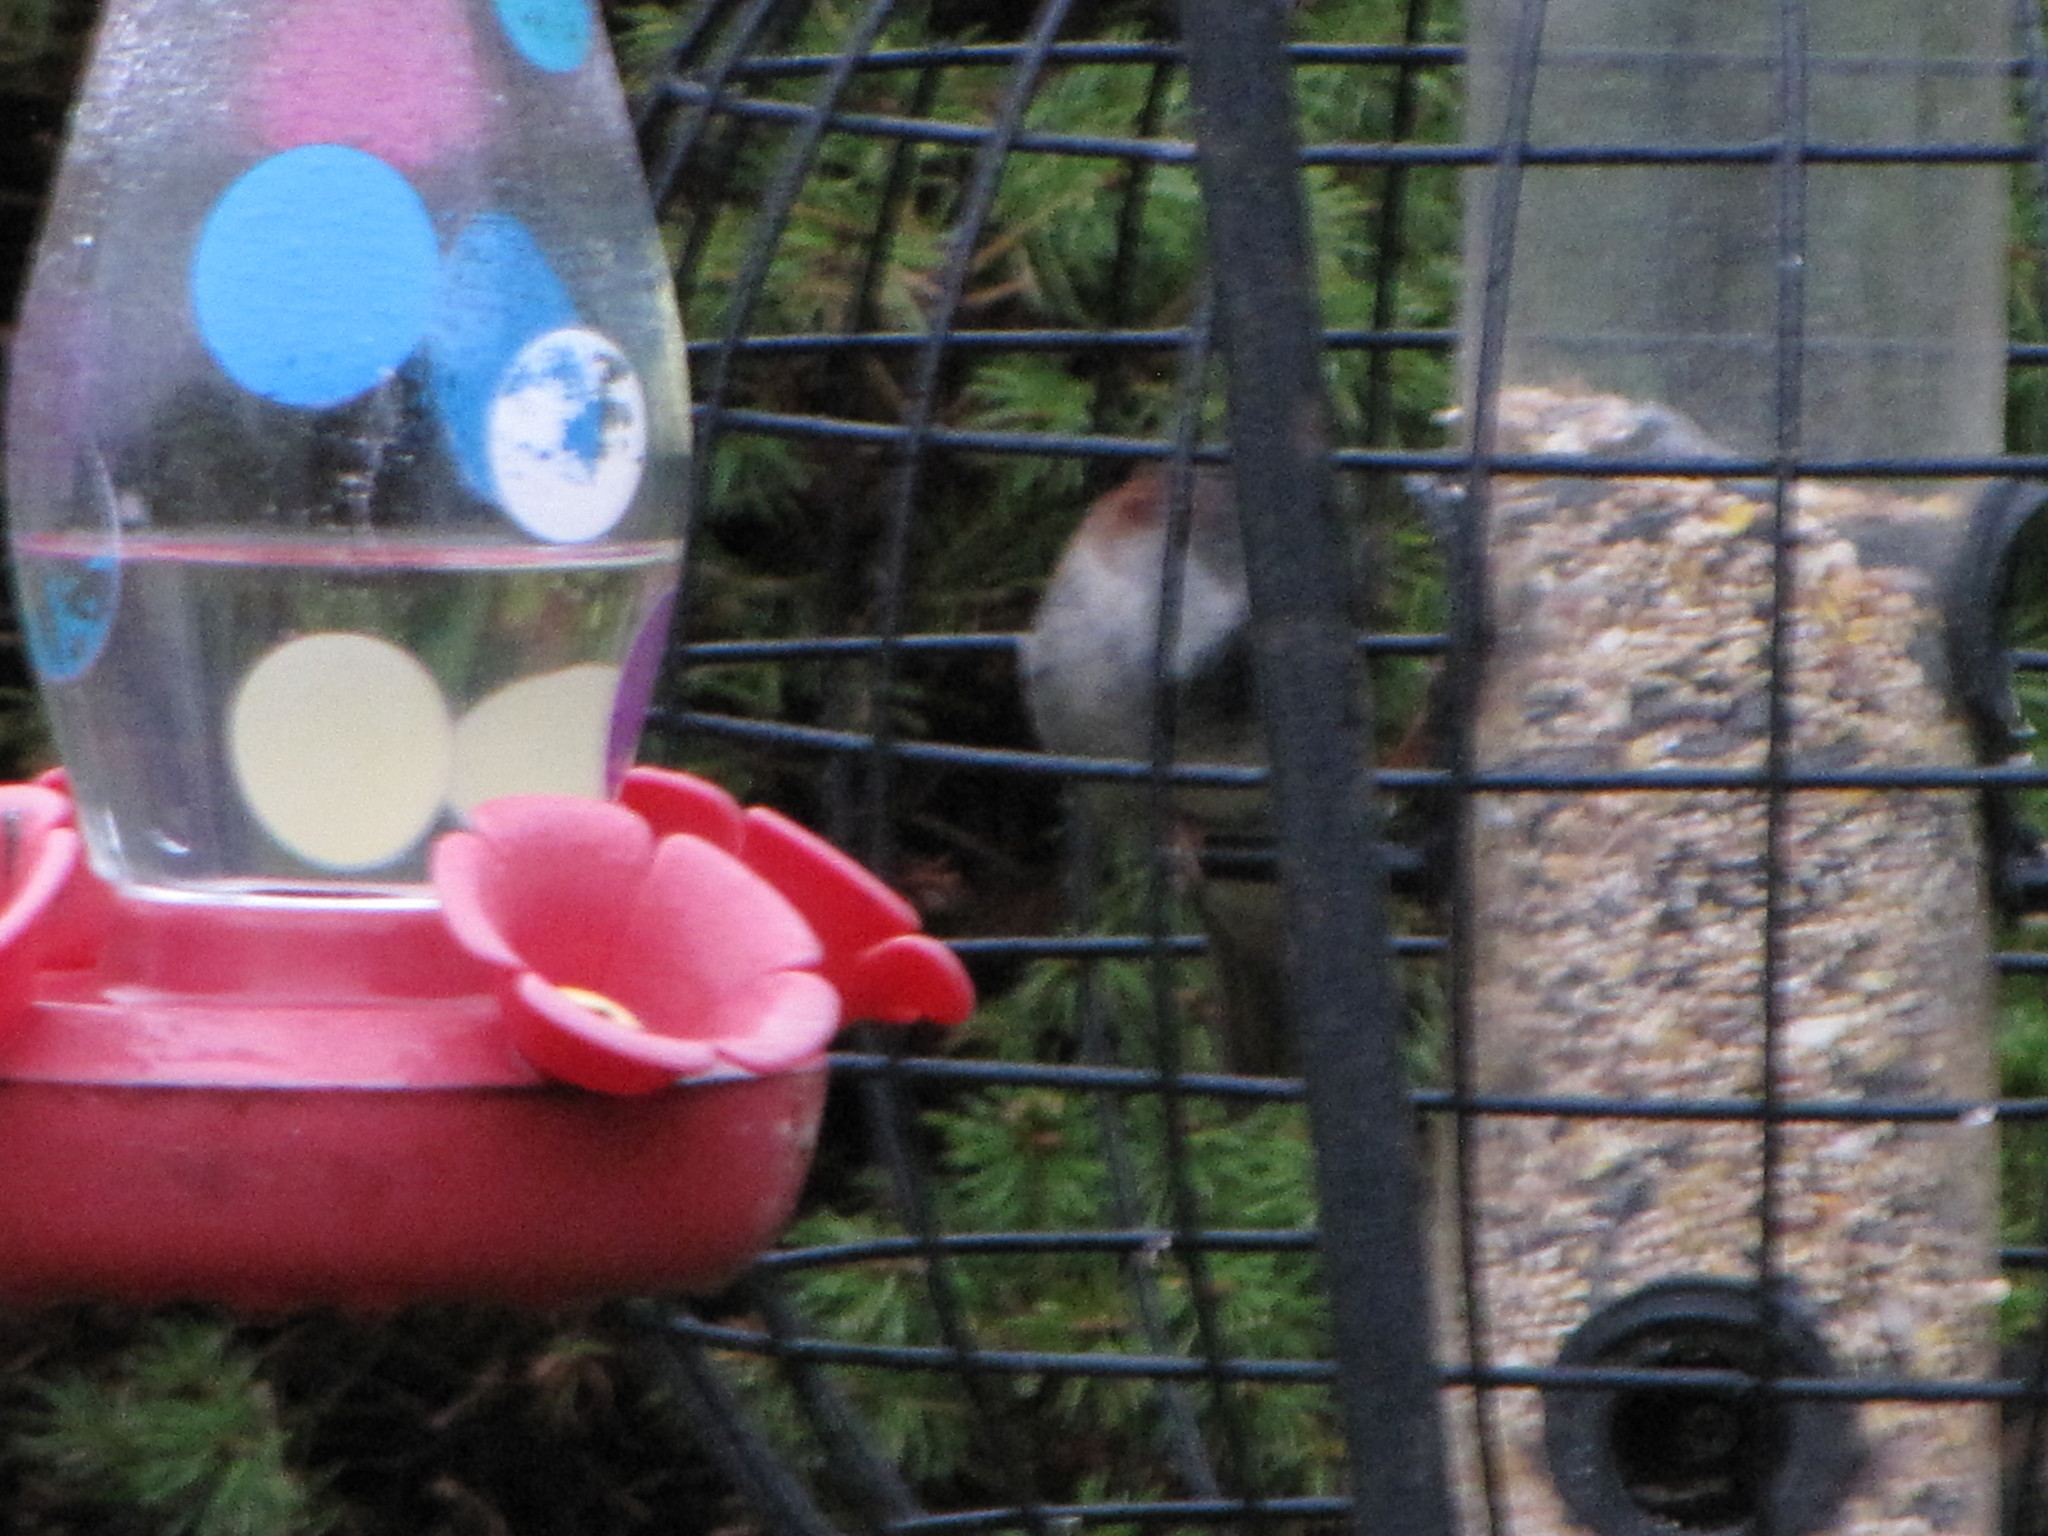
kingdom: Animalia
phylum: Chordata
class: Aves
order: Passeriformes
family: Passeridae
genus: Passer
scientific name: Passer domesticus
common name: House sparrow
